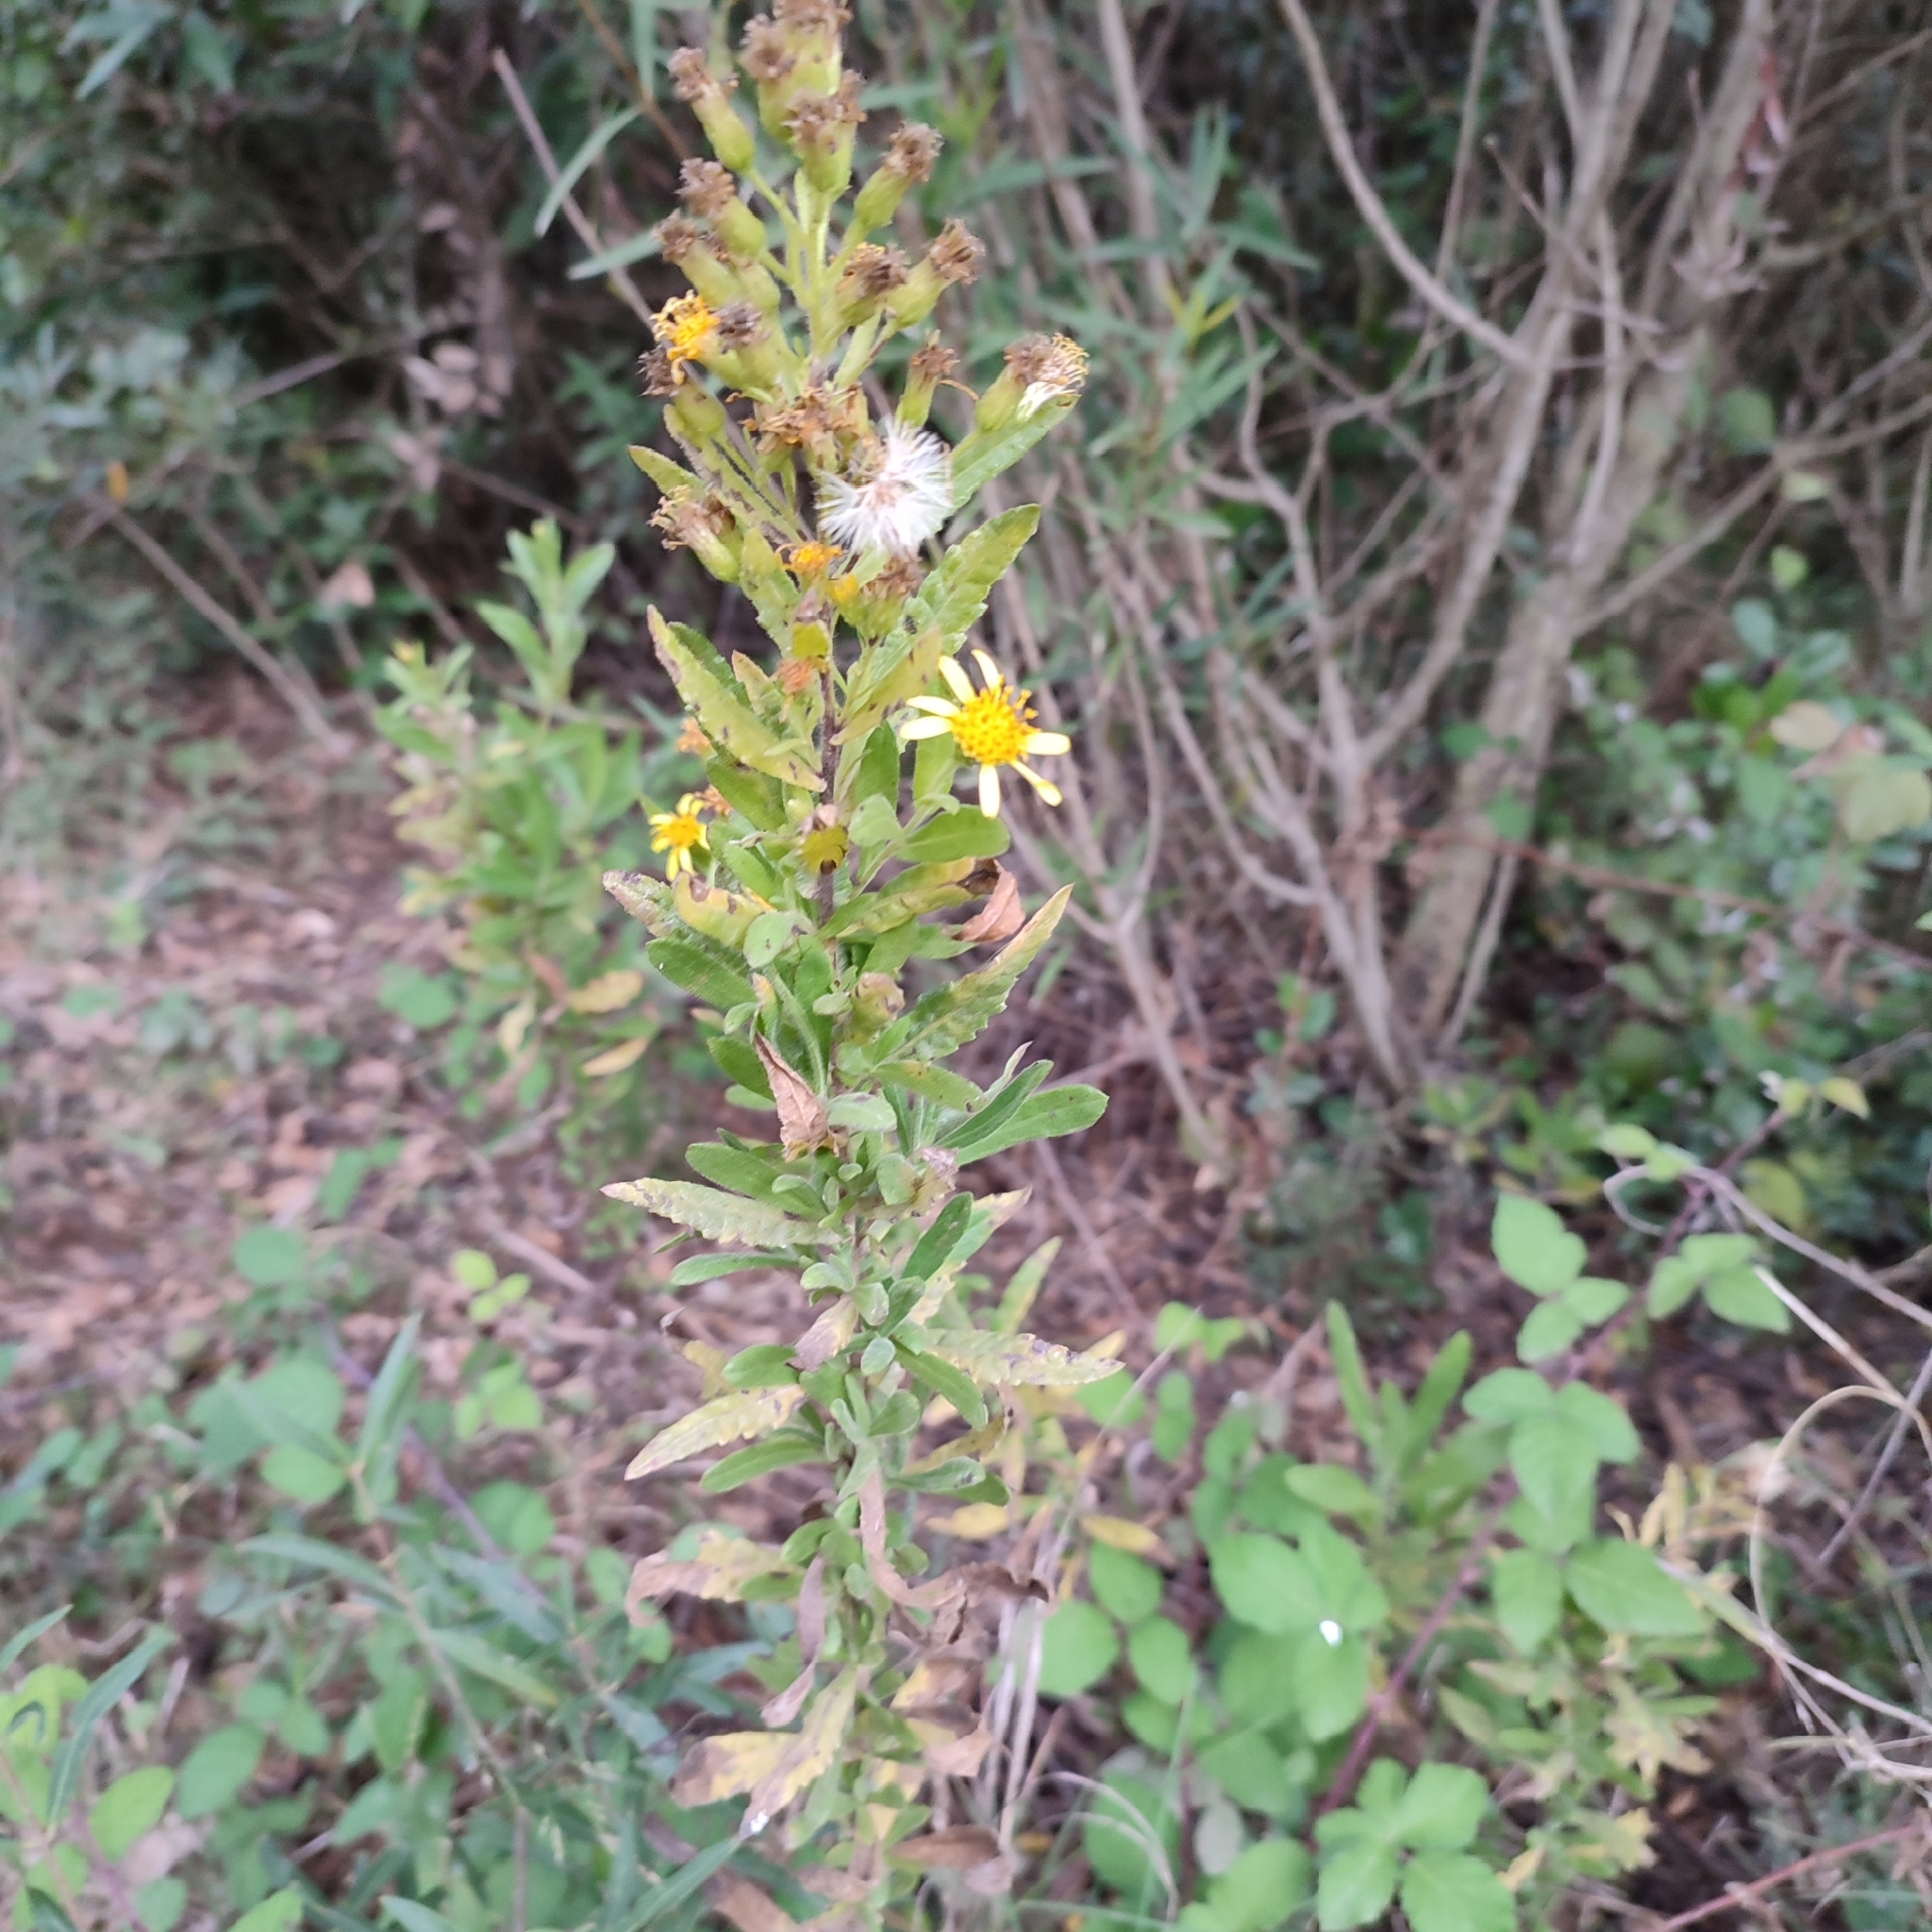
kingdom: Plantae
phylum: Tracheophyta
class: Magnoliopsida
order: Asterales
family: Asteraceae
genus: Dittrichia
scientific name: Dittrichia viscosa
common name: Woody fleabane
